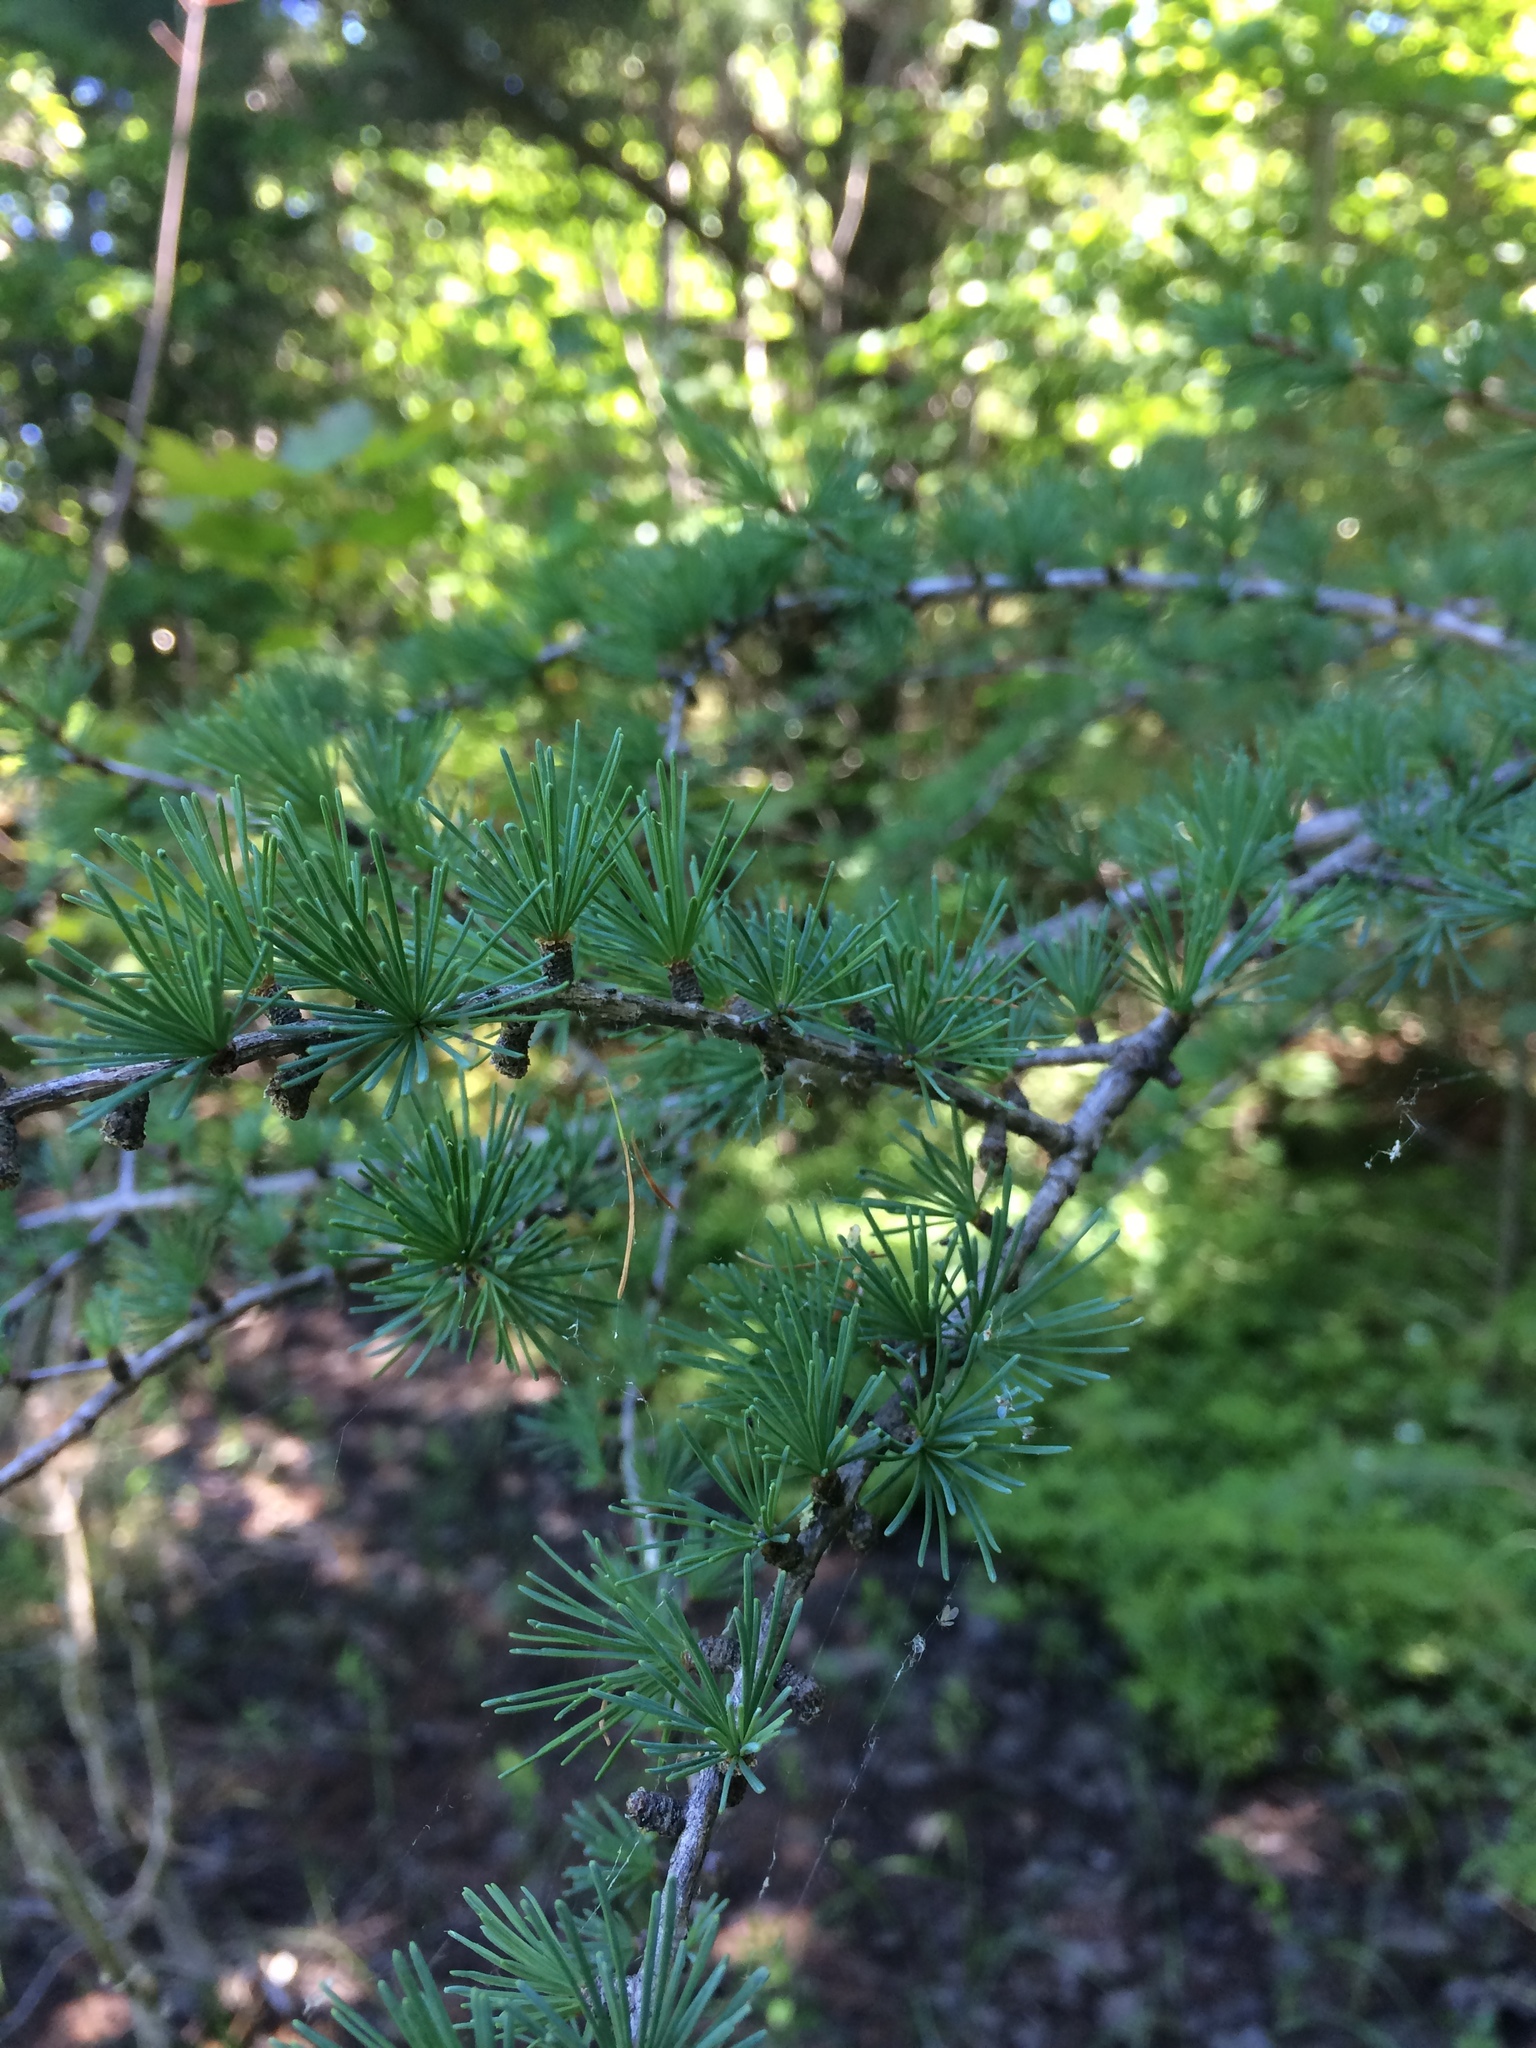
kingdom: Plantae
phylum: Tracheophyta
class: Pinopsida
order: Pinales
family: Pinaceae
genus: Larix
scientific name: Larix laricina
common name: American larch
